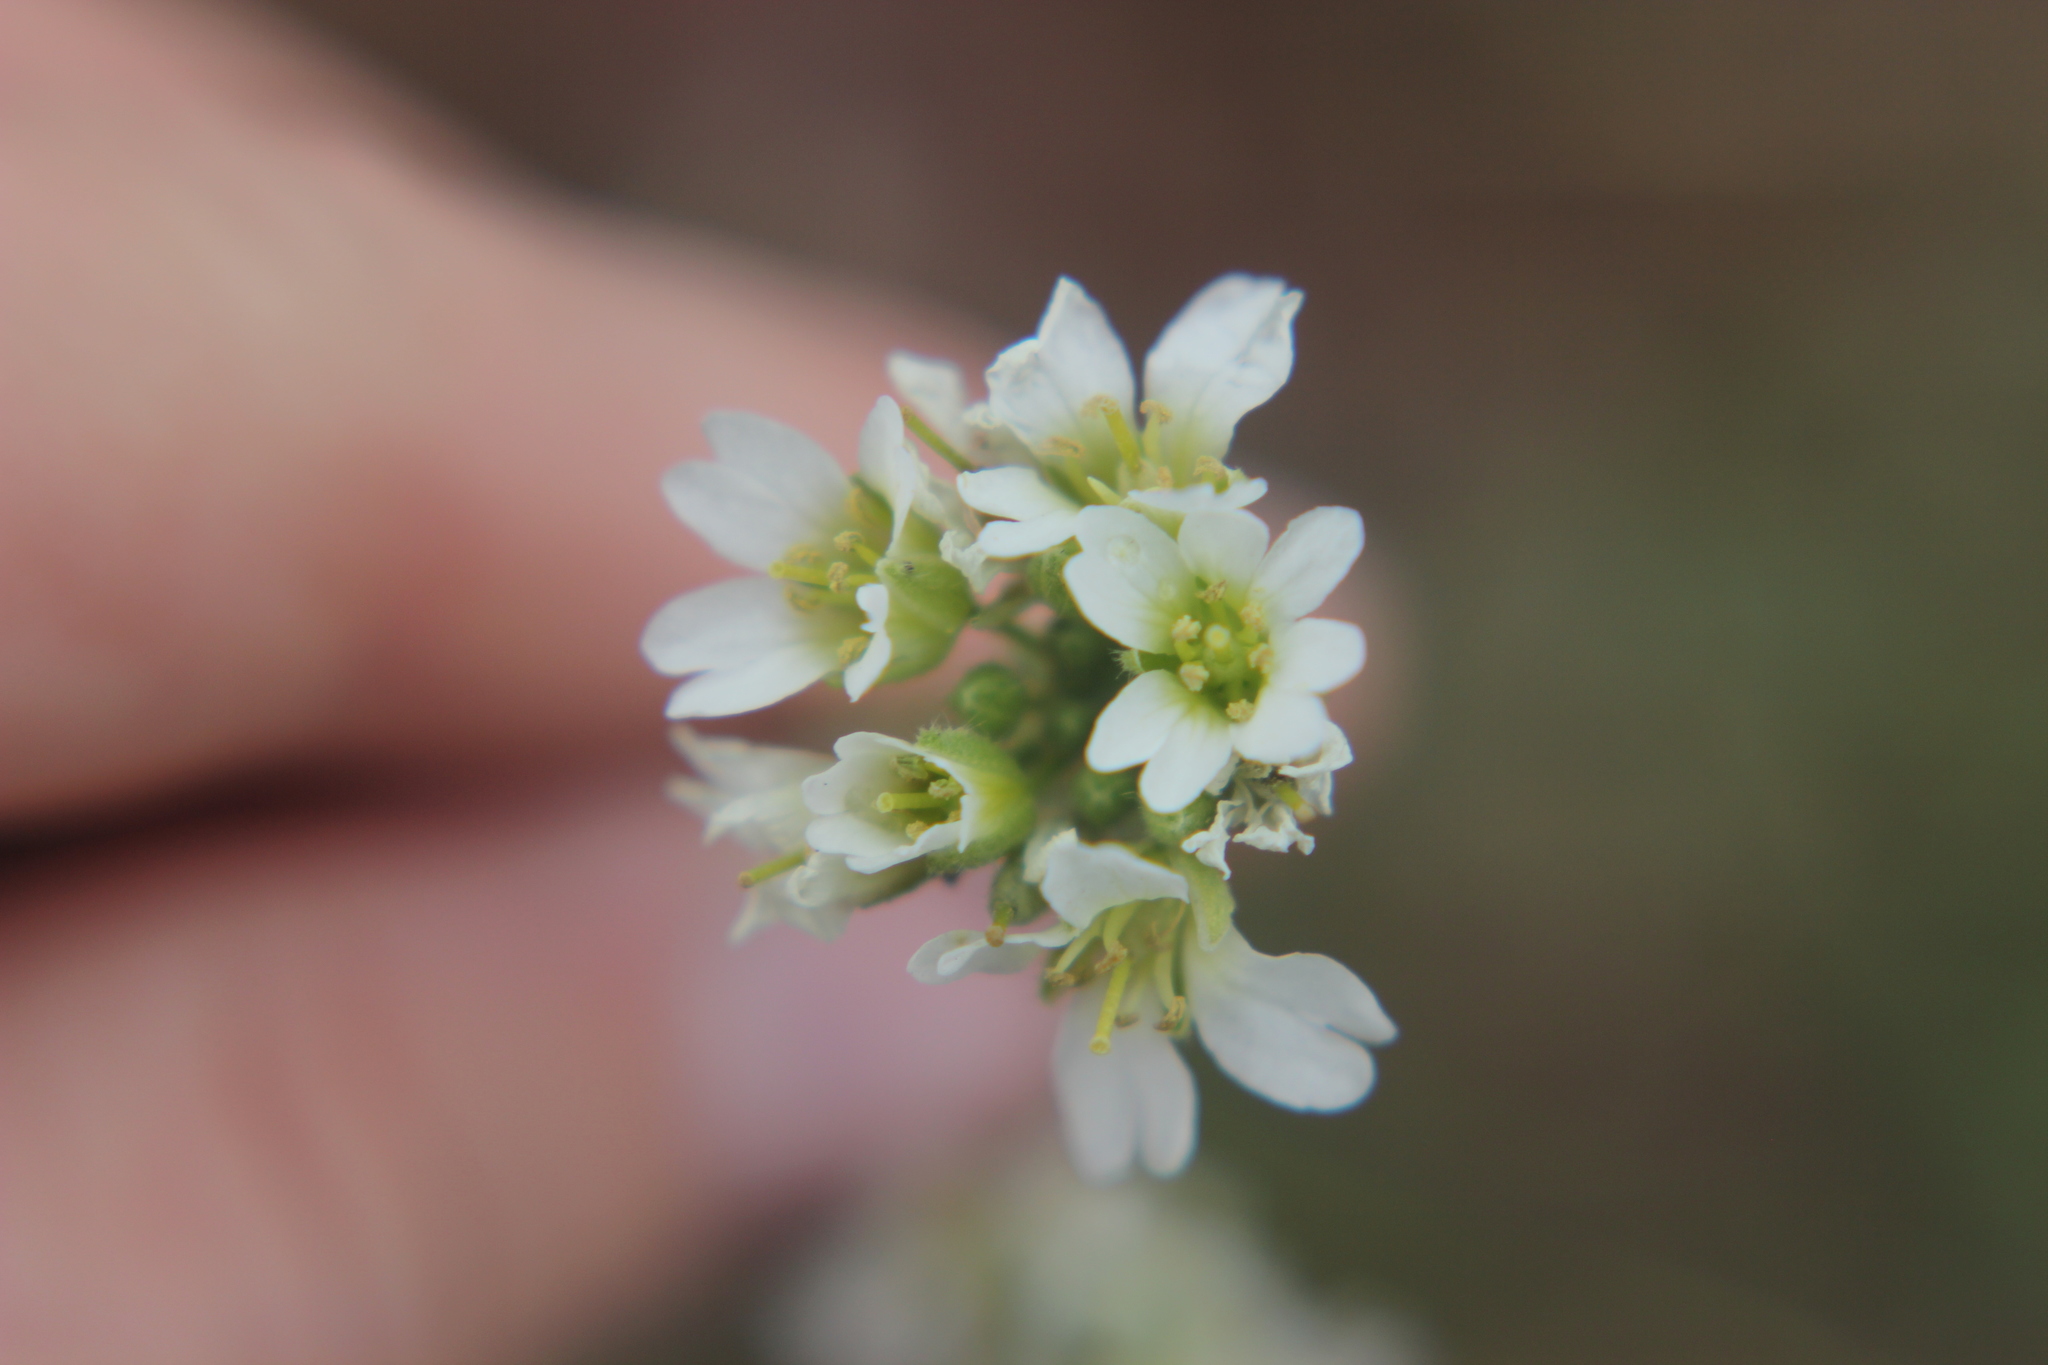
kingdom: Plantae
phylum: Tracheophyta
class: Magnoliopsida
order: Brassicales
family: Brassicaceae
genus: Berteroa
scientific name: Berteroa incana
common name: Hoary alison
